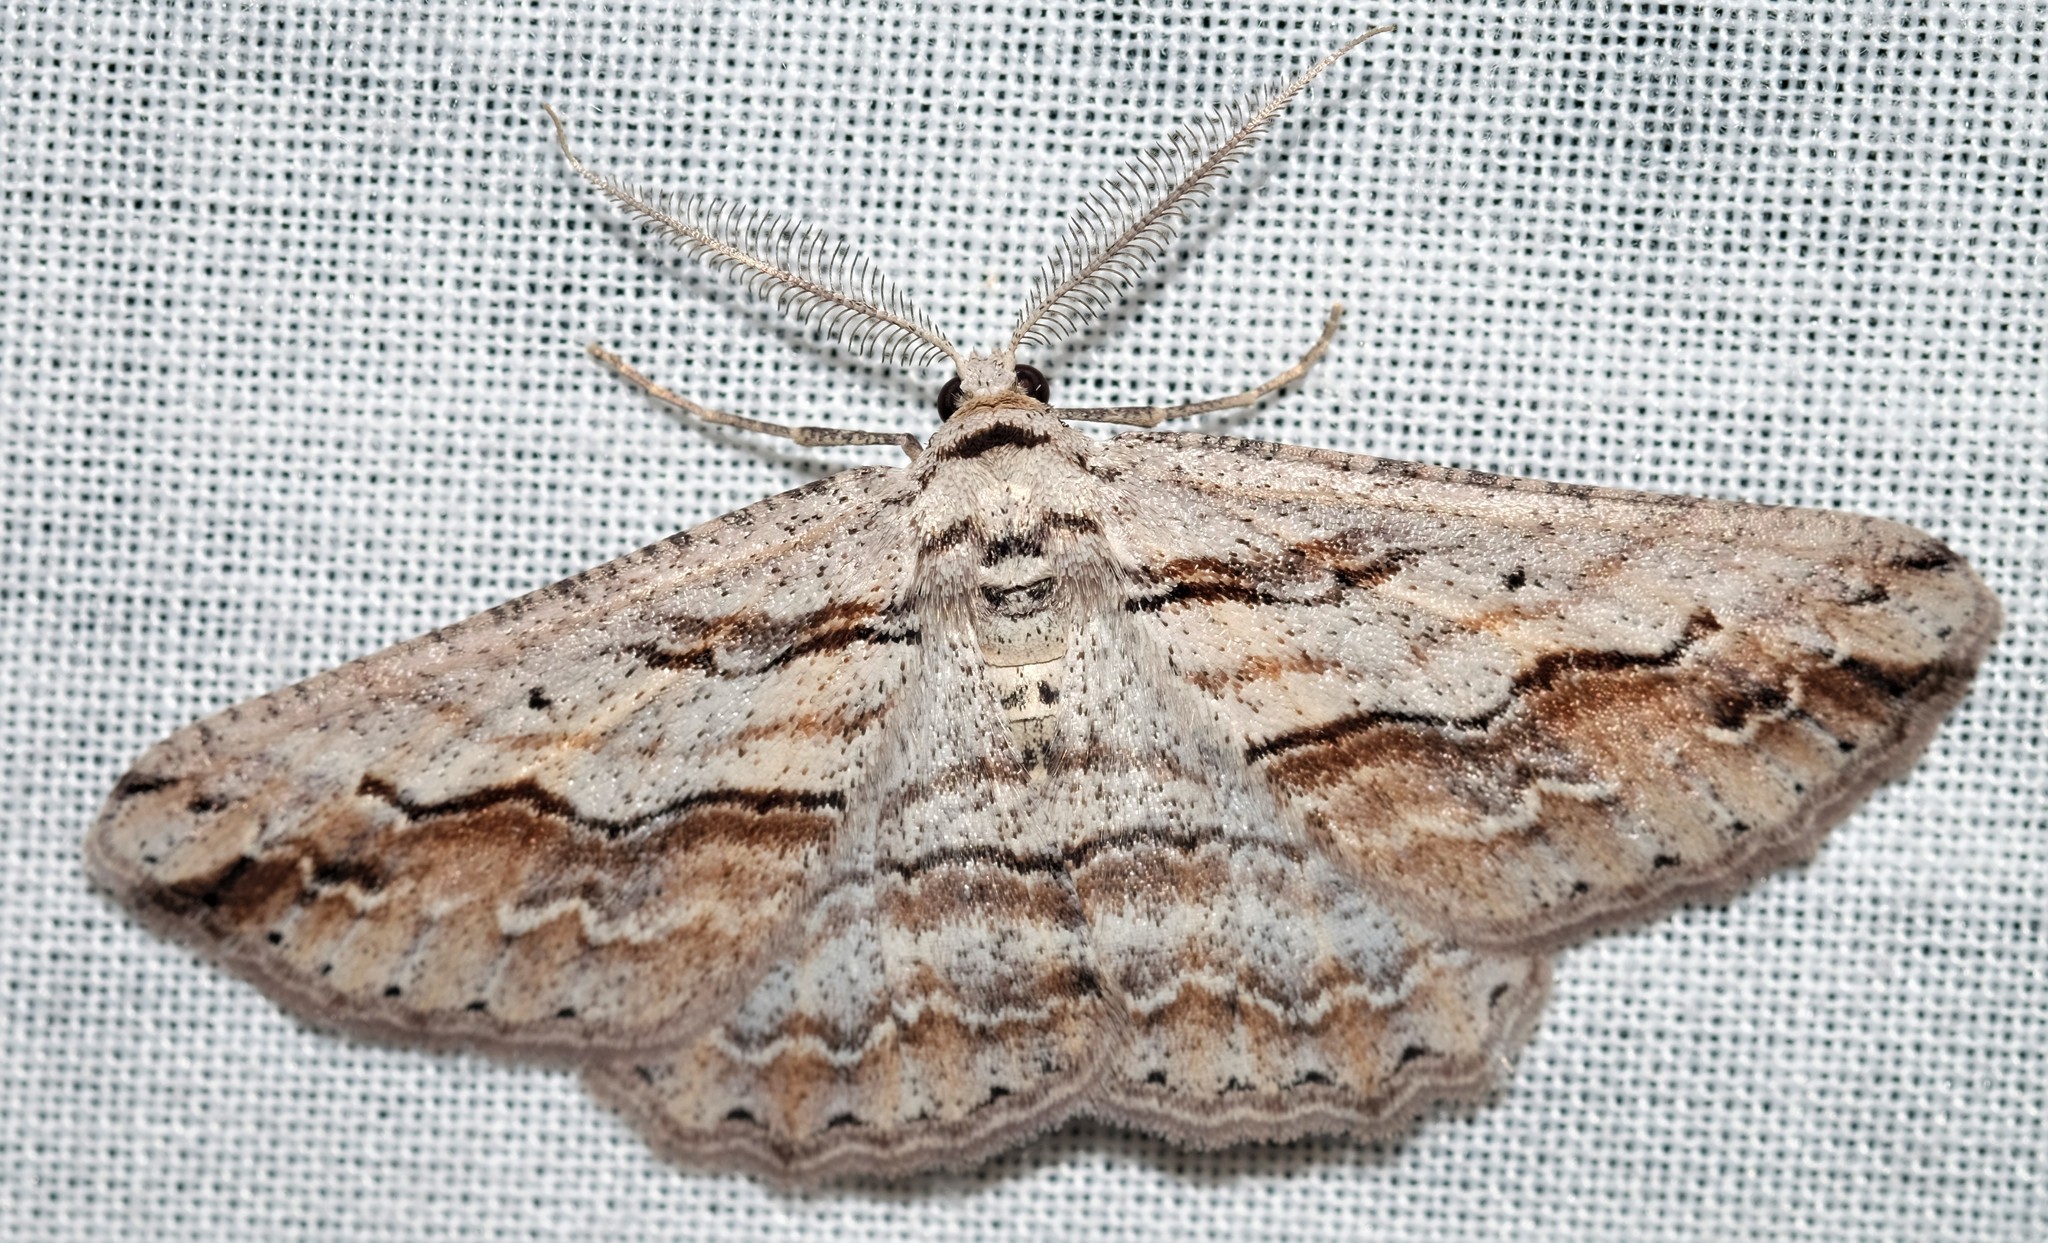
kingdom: Animalia
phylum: Arthropoda
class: Insecta
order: Lepidoptera
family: Geometridae
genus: Syneora
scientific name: Syneora mundifera
